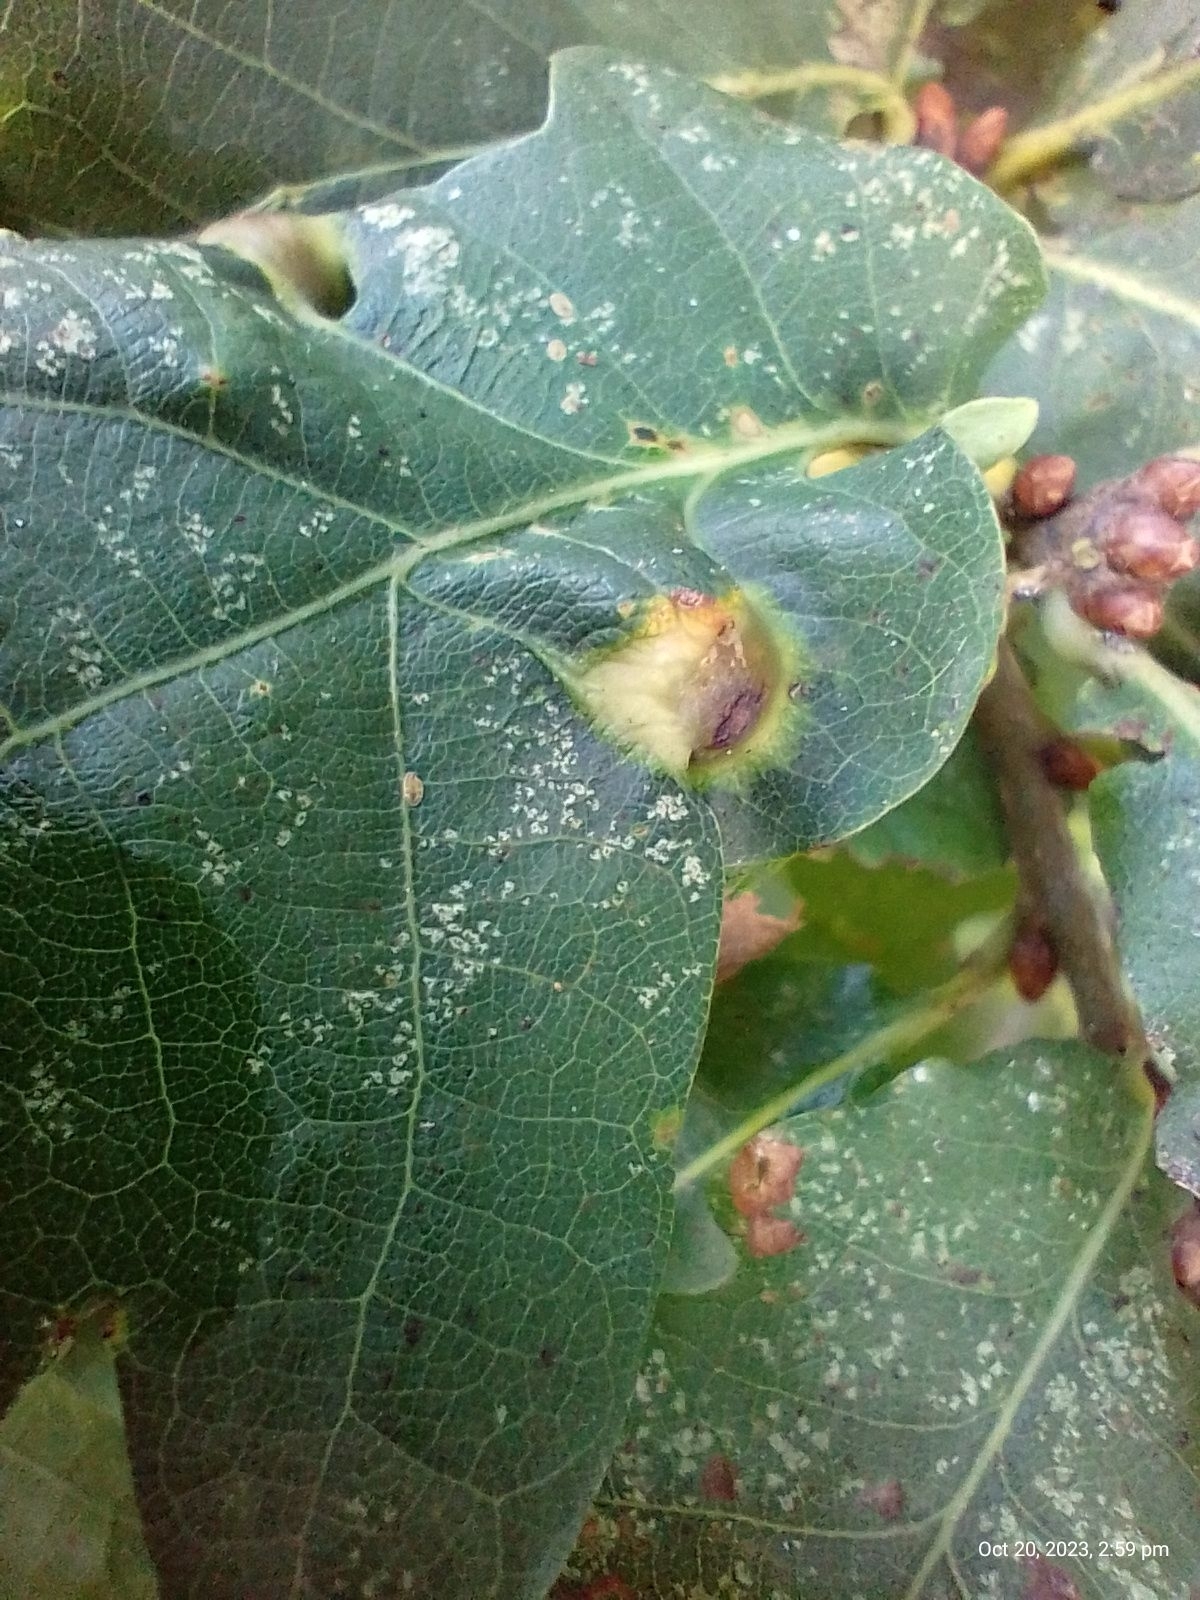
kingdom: Animalia
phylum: Arthropoda
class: Insecta
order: Hymenoptera
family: Cynipidae
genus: Andricus
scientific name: Andricus curvator
